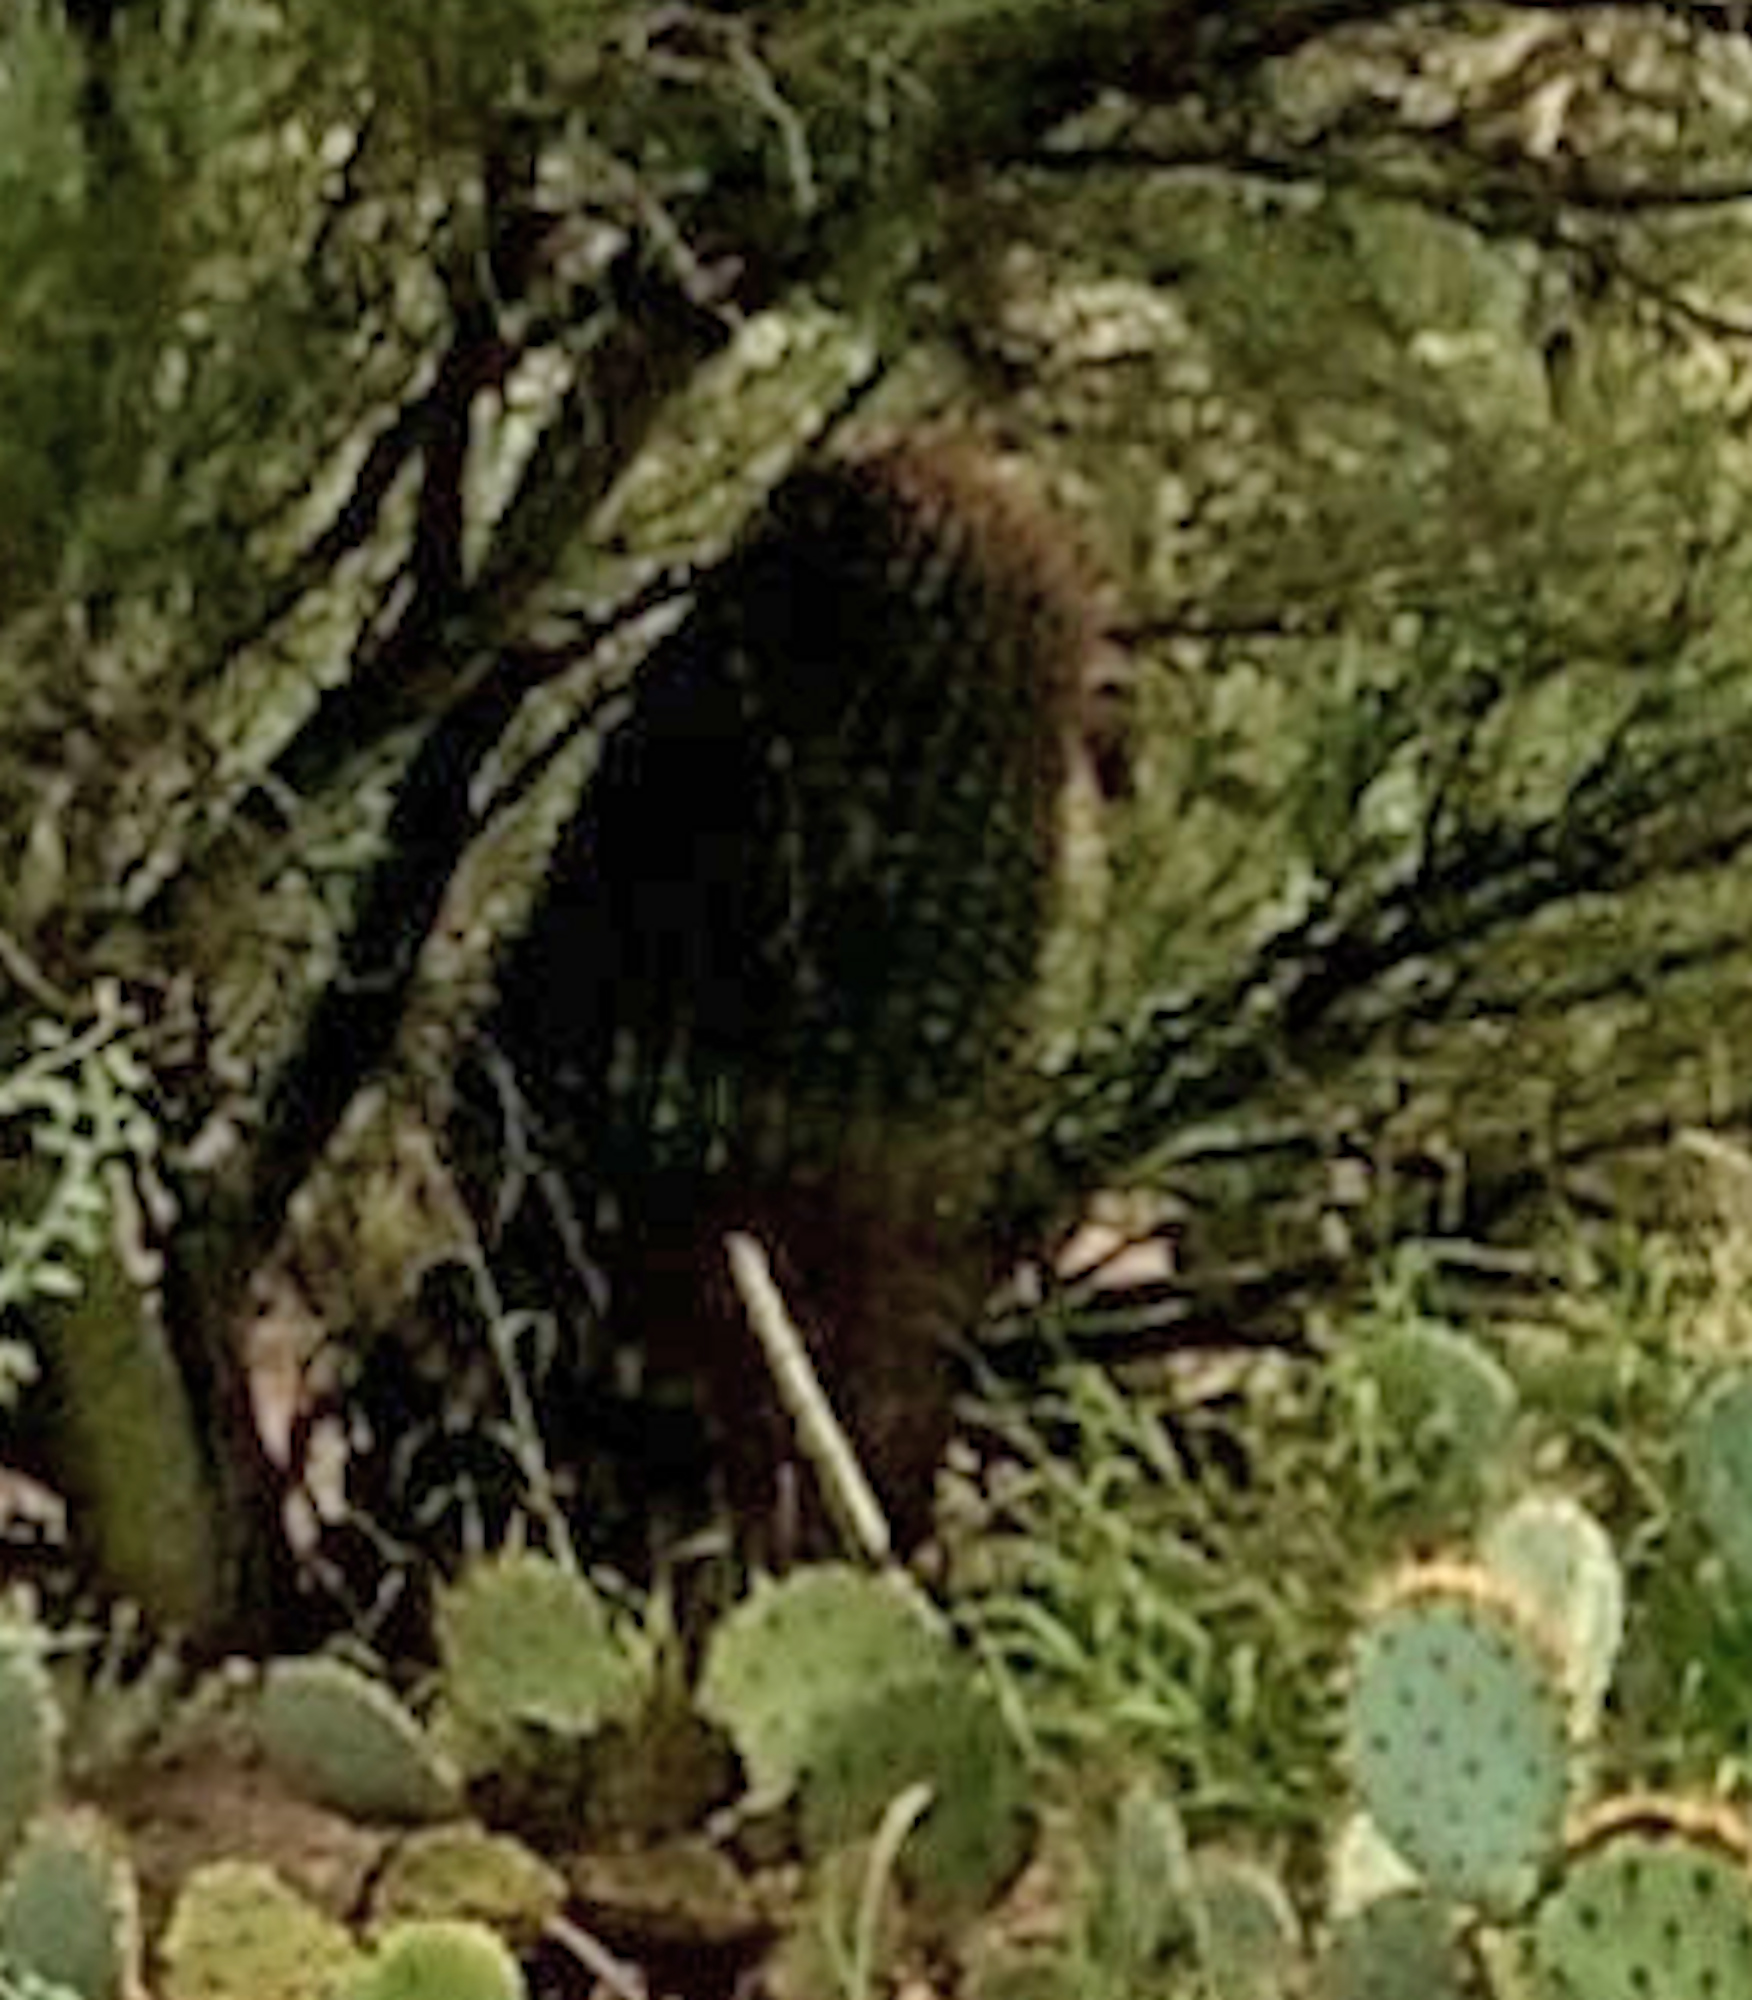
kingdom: Plantae
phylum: Tracheophyta
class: Magnoliopsida
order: Caryophyllales
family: Cactaceae
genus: Ferocactus
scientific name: Ferocactus wislizeni
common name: Candy barrel cactus
